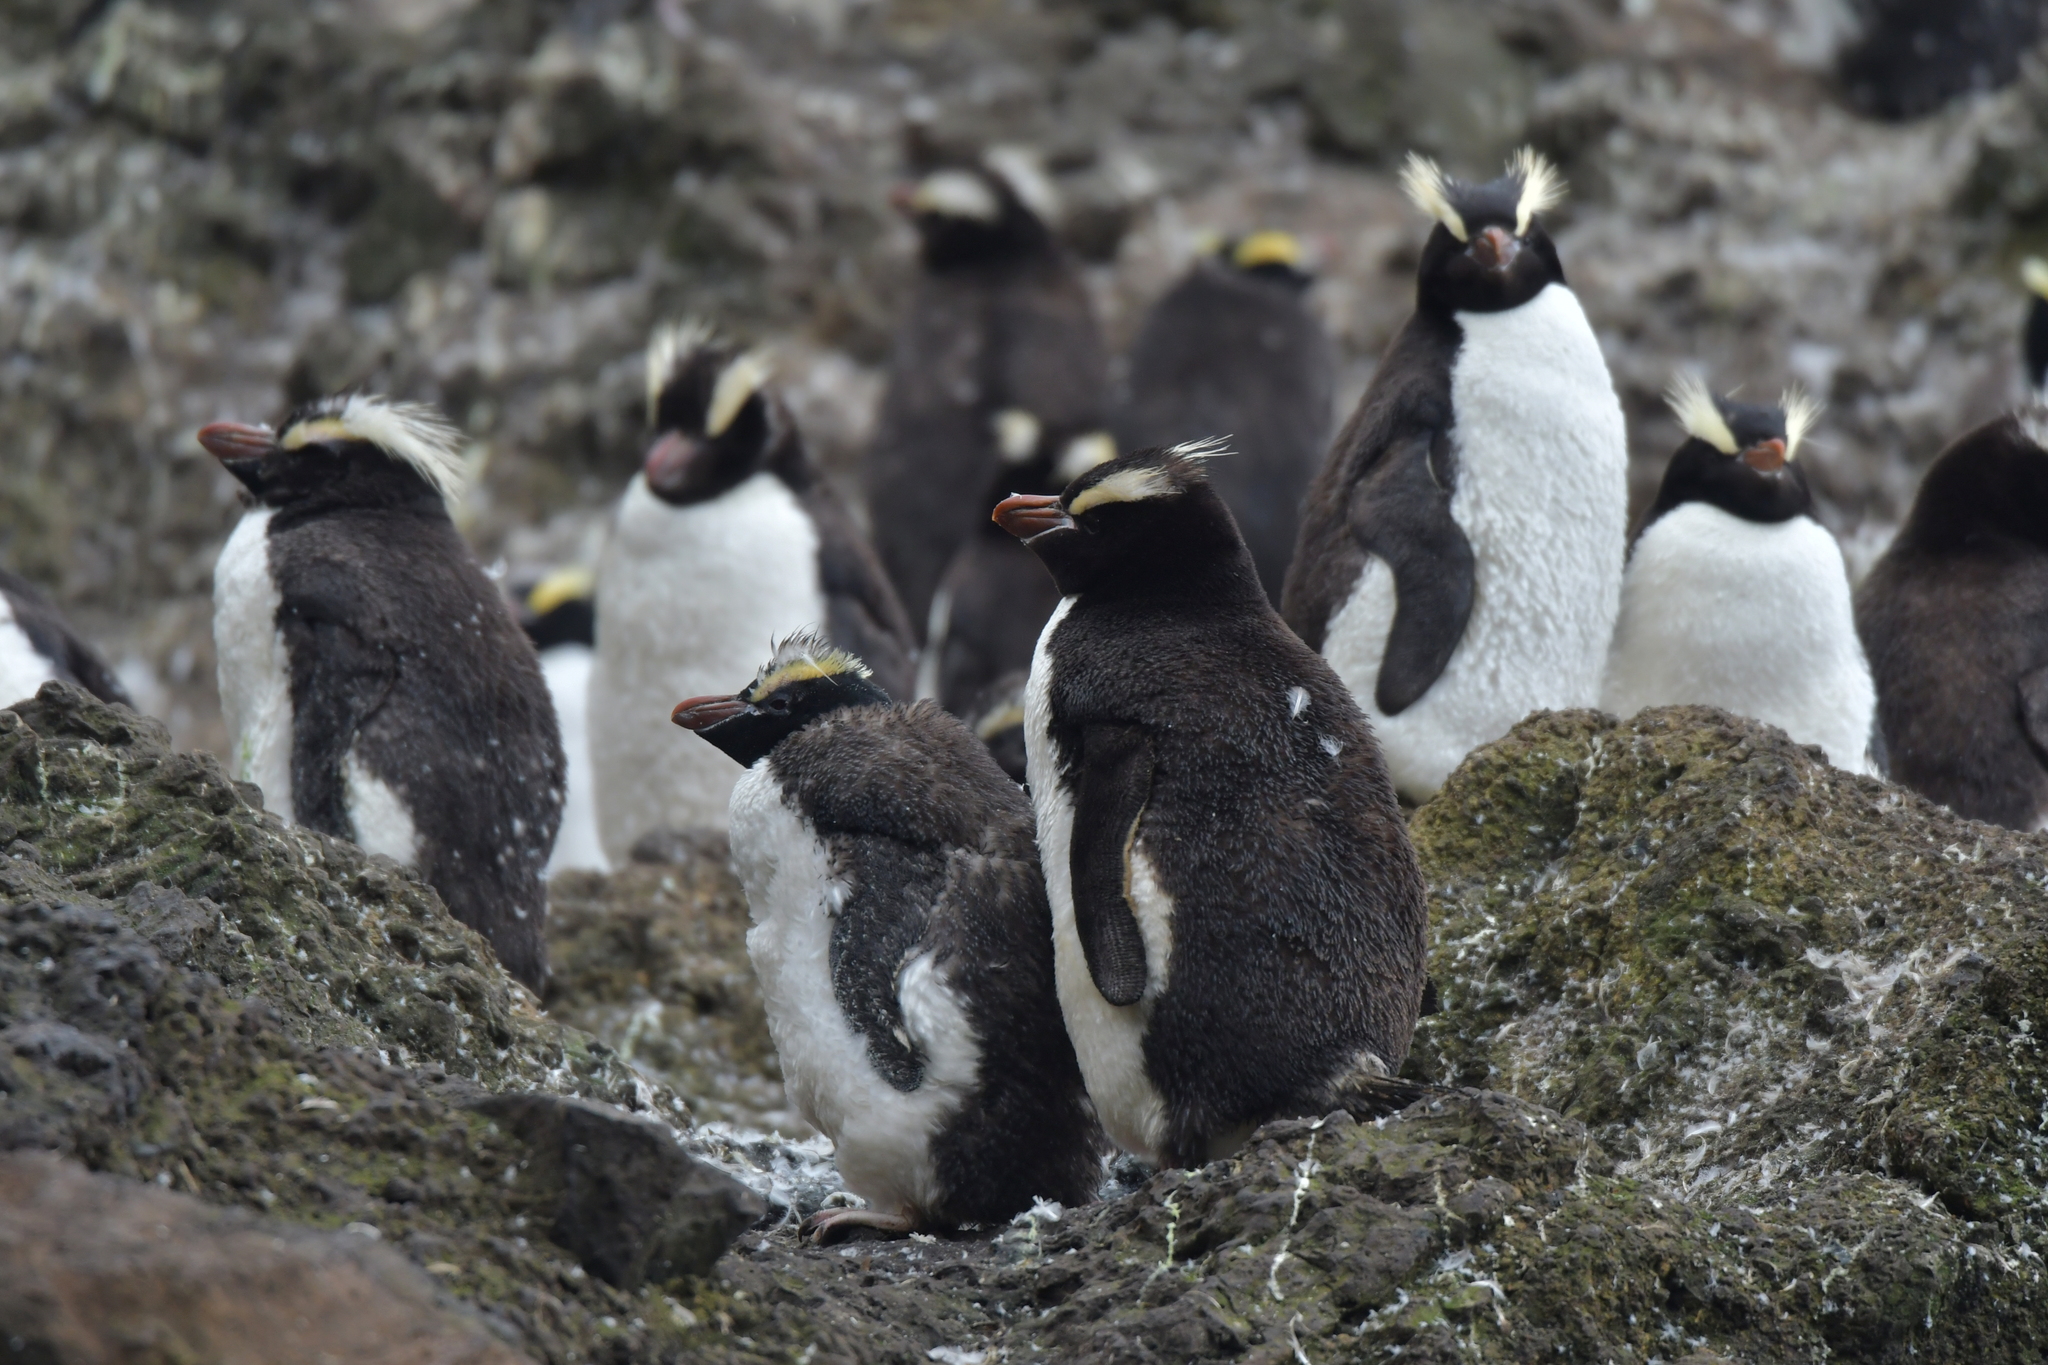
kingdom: Animalia
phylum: Chordata
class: Aves
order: Sphenisciformes
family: Spheniscidae
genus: Eudyptes
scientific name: Eudyptes sclateri
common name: Erect-crested penguin
